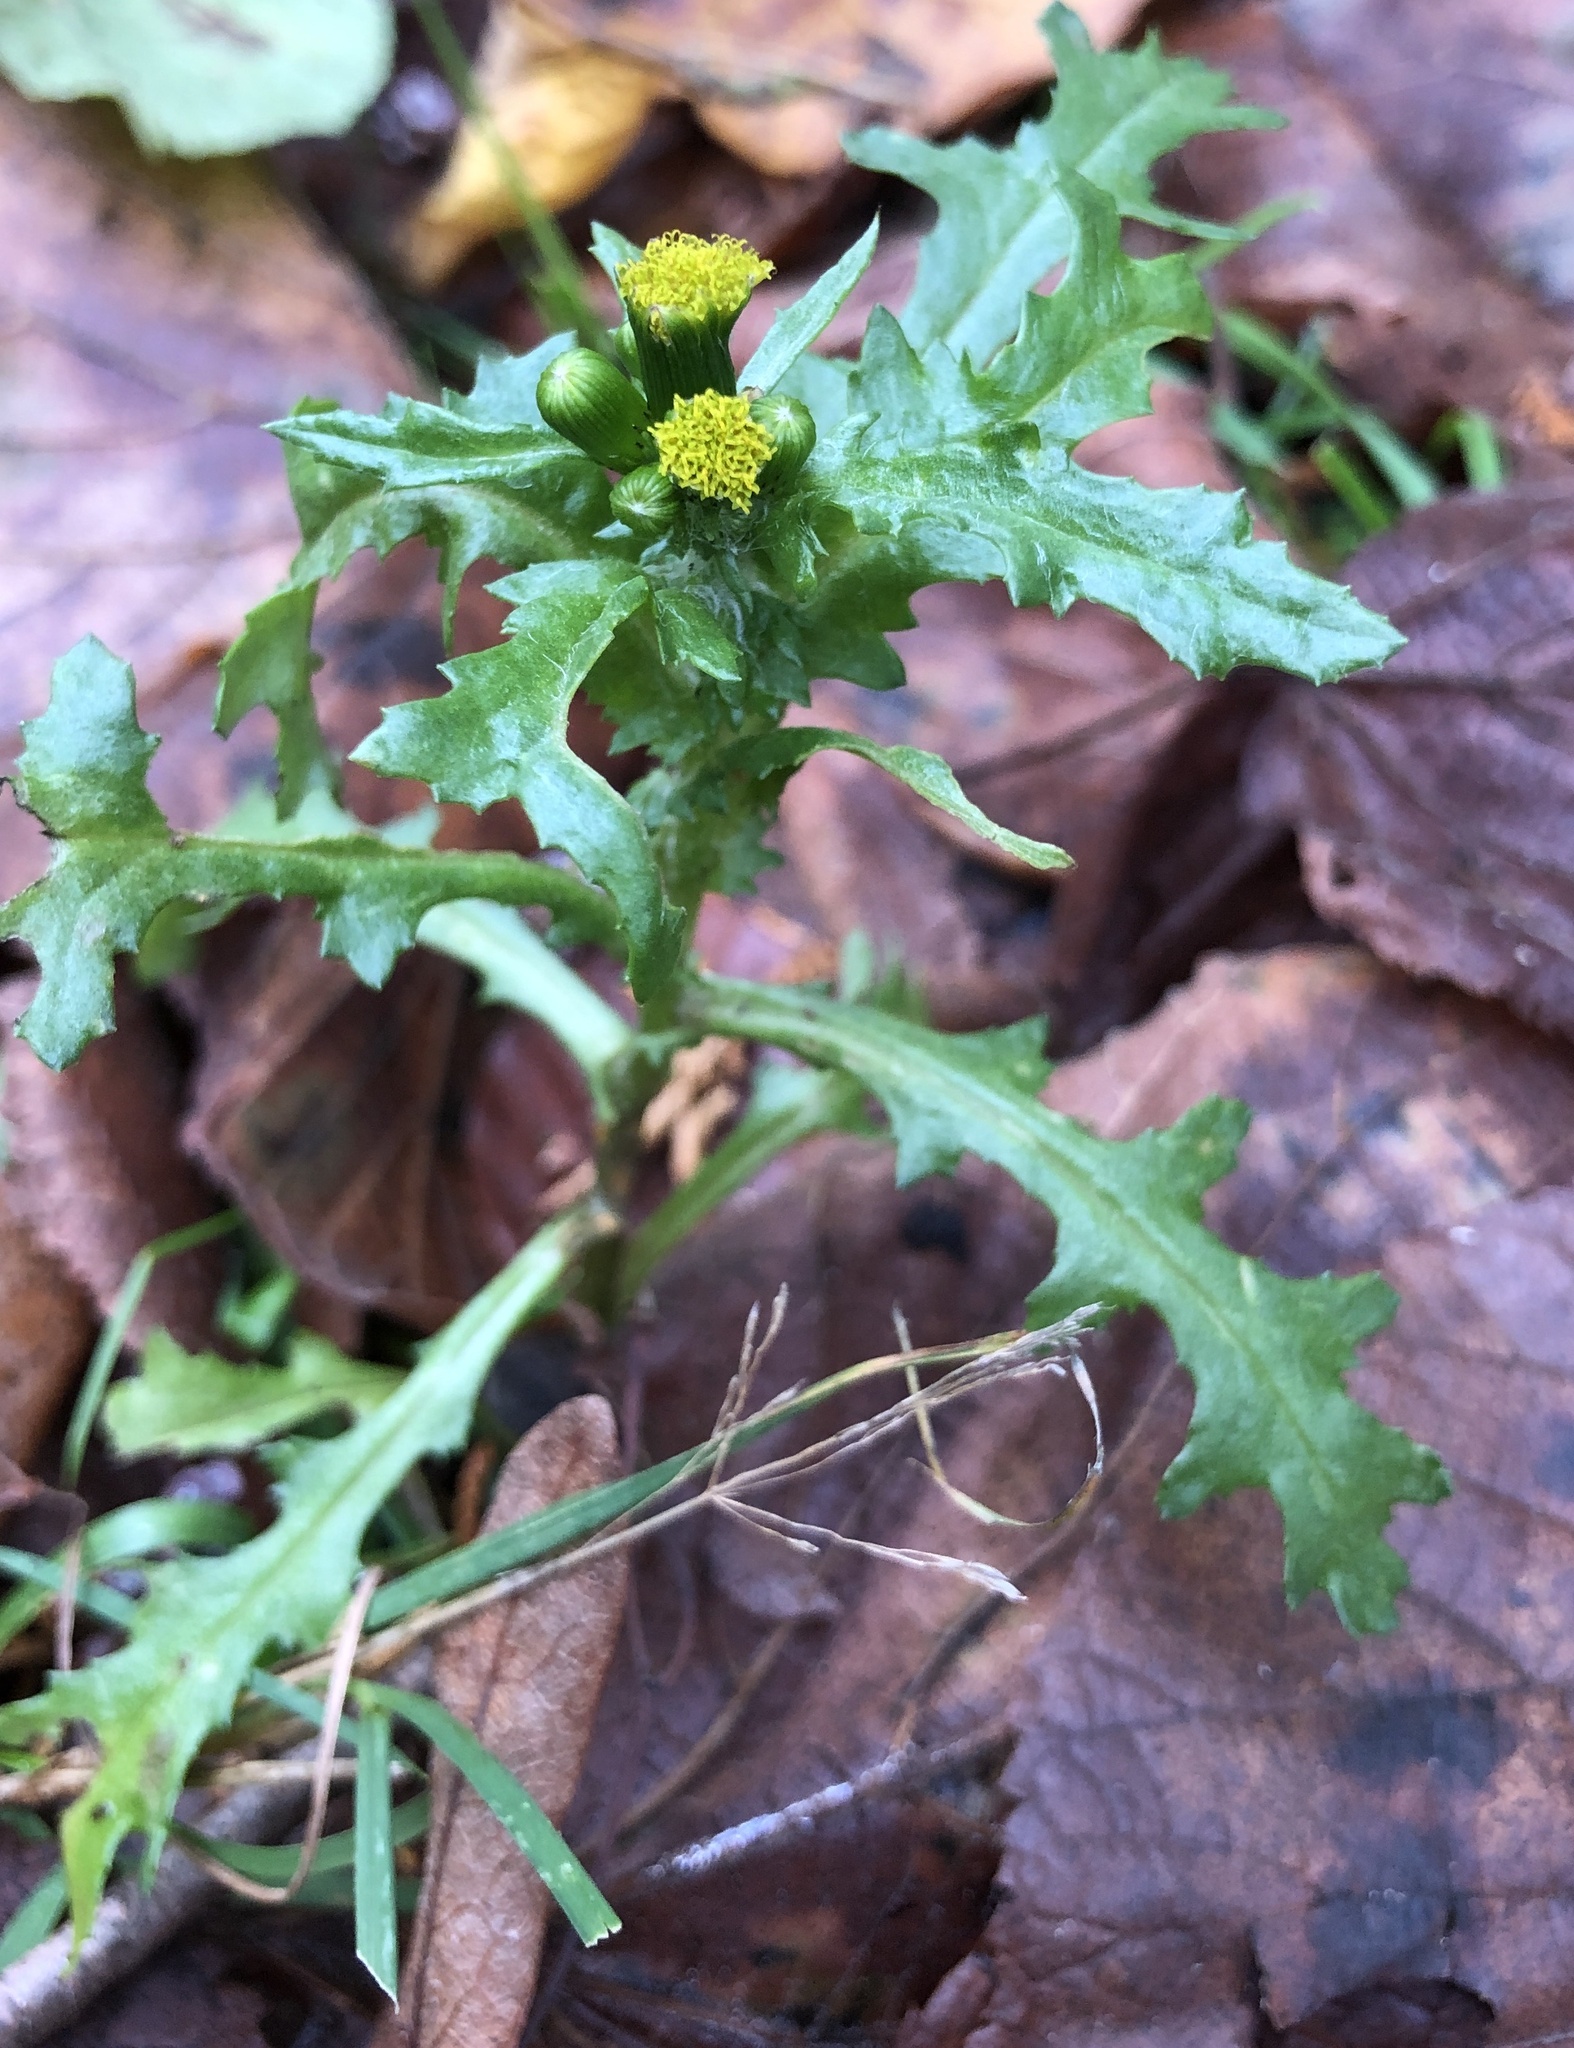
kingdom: Plantae
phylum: Tracheophyta
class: Magnoliopsida
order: Asterales
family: Asteraceae
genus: Senecio
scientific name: Senecio vulgaris
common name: Old-man-in-the-spring
